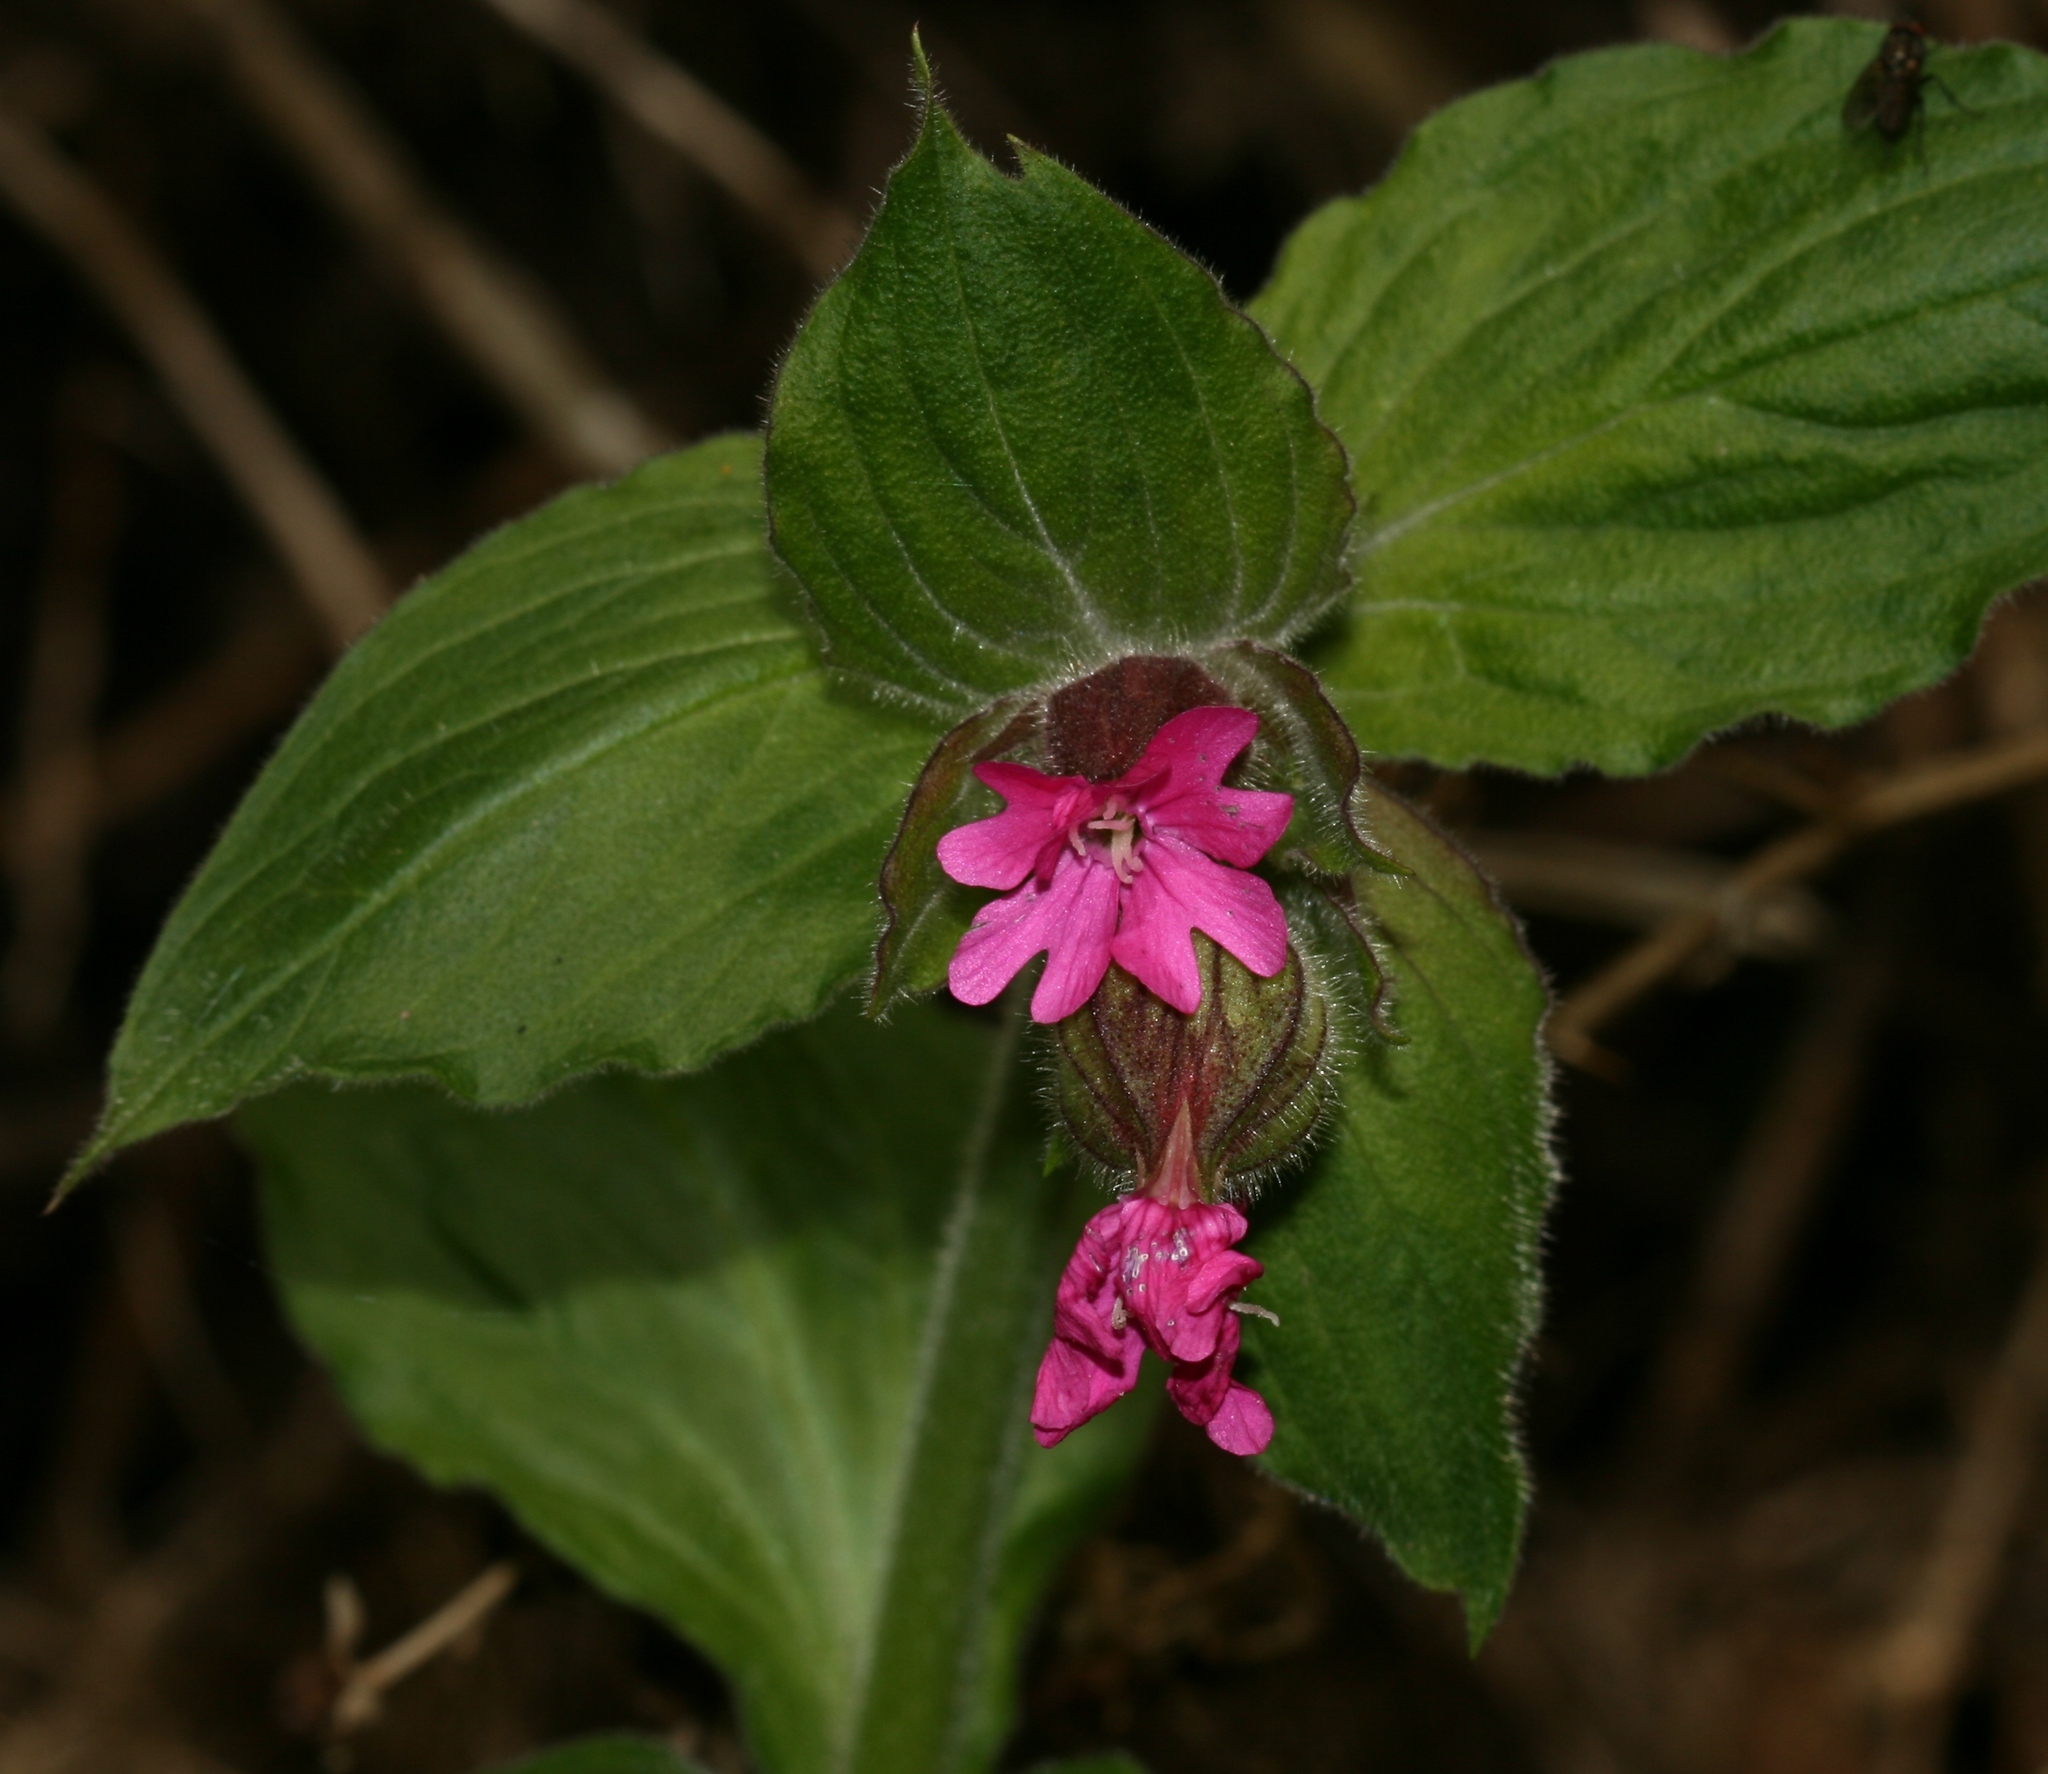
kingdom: Plantae
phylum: Tracheophyta
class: Magnoliopsida
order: Caryophyllales
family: Caryophyllaceae
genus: Silene
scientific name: Silene dioica
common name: Red campion
